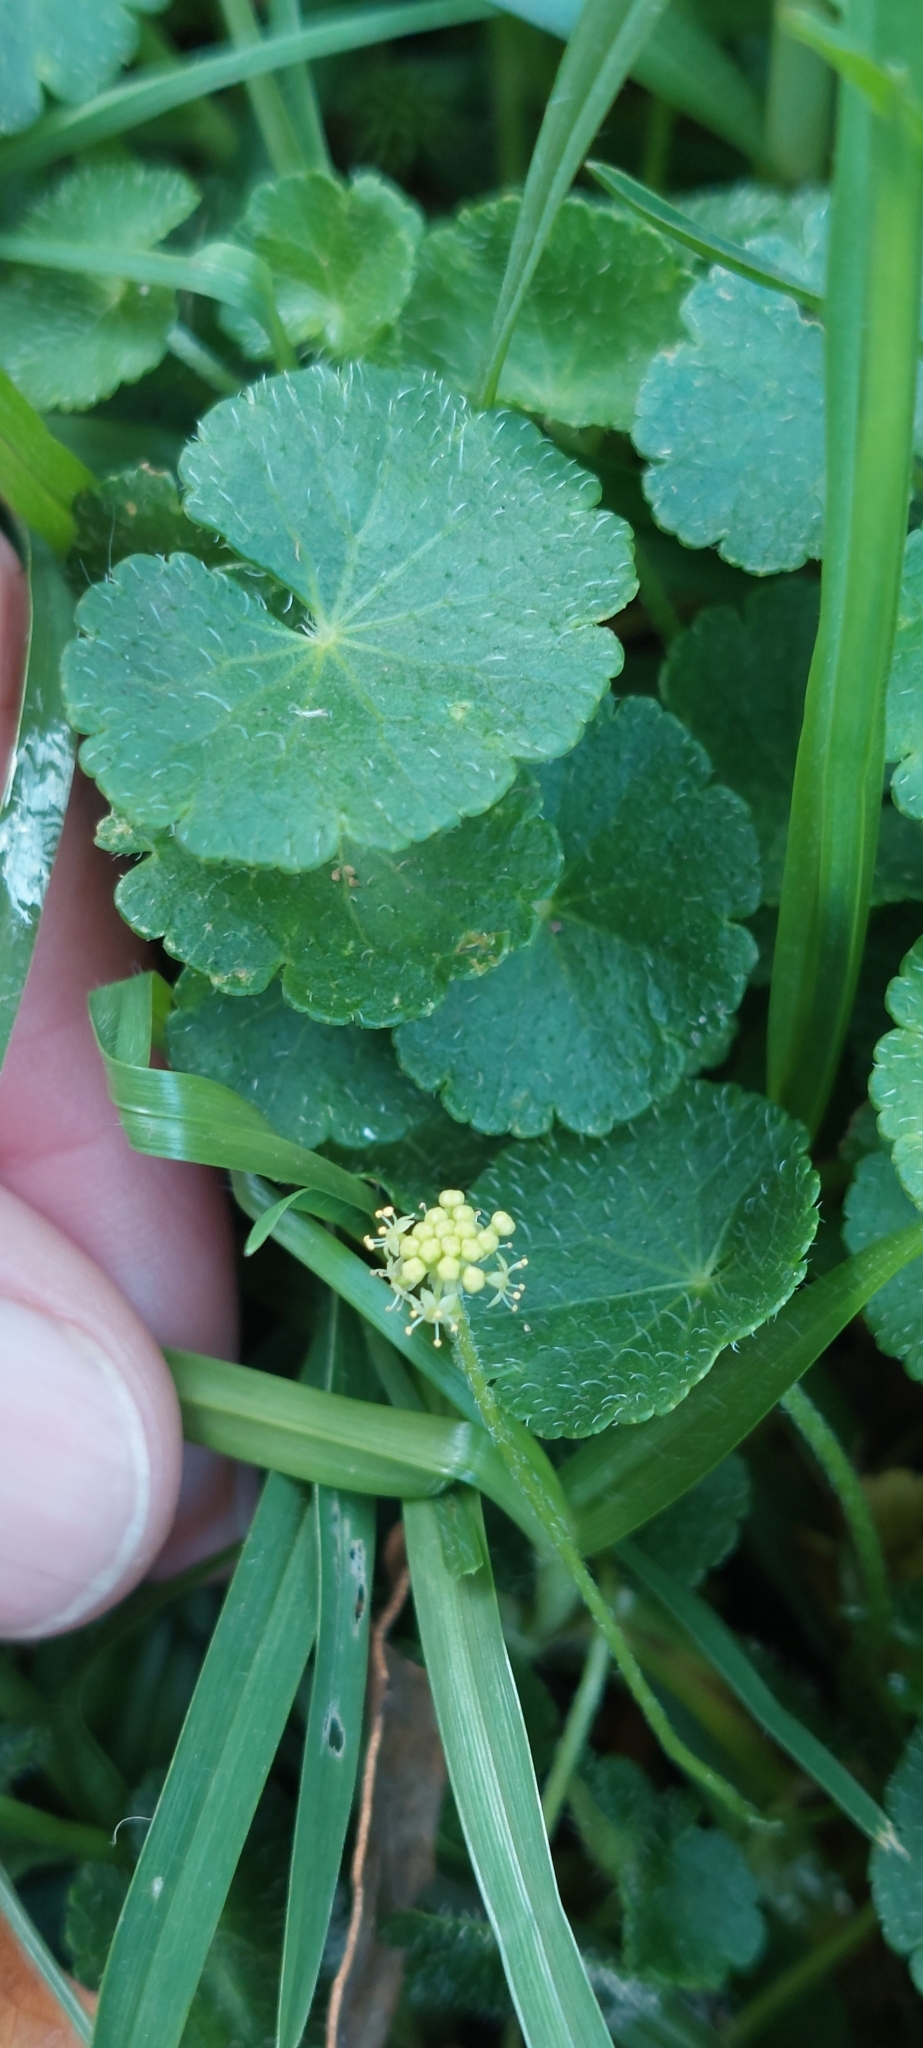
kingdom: Plantae
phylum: Tracheophyta
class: Magnoliopsida
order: Apiales
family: Araliaceae
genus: Hydrocotyle
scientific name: Hydrocotyle bonplandii
